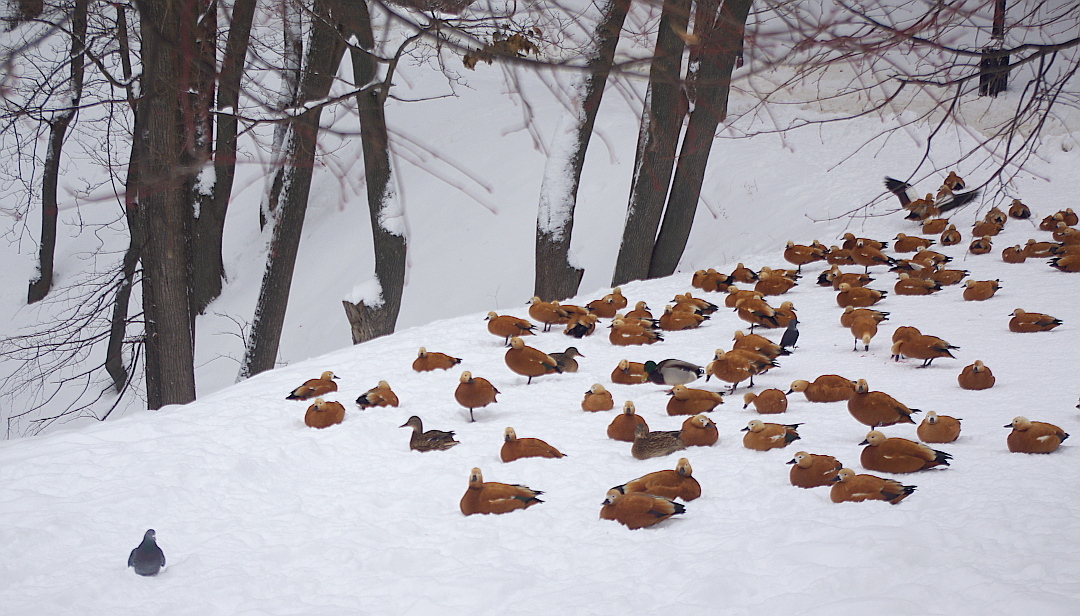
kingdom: Animalia
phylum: Chordata
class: Aves
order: Anseriformes
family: Anatidae
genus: Anas
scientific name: Anas platyrhynchos
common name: Mallard
